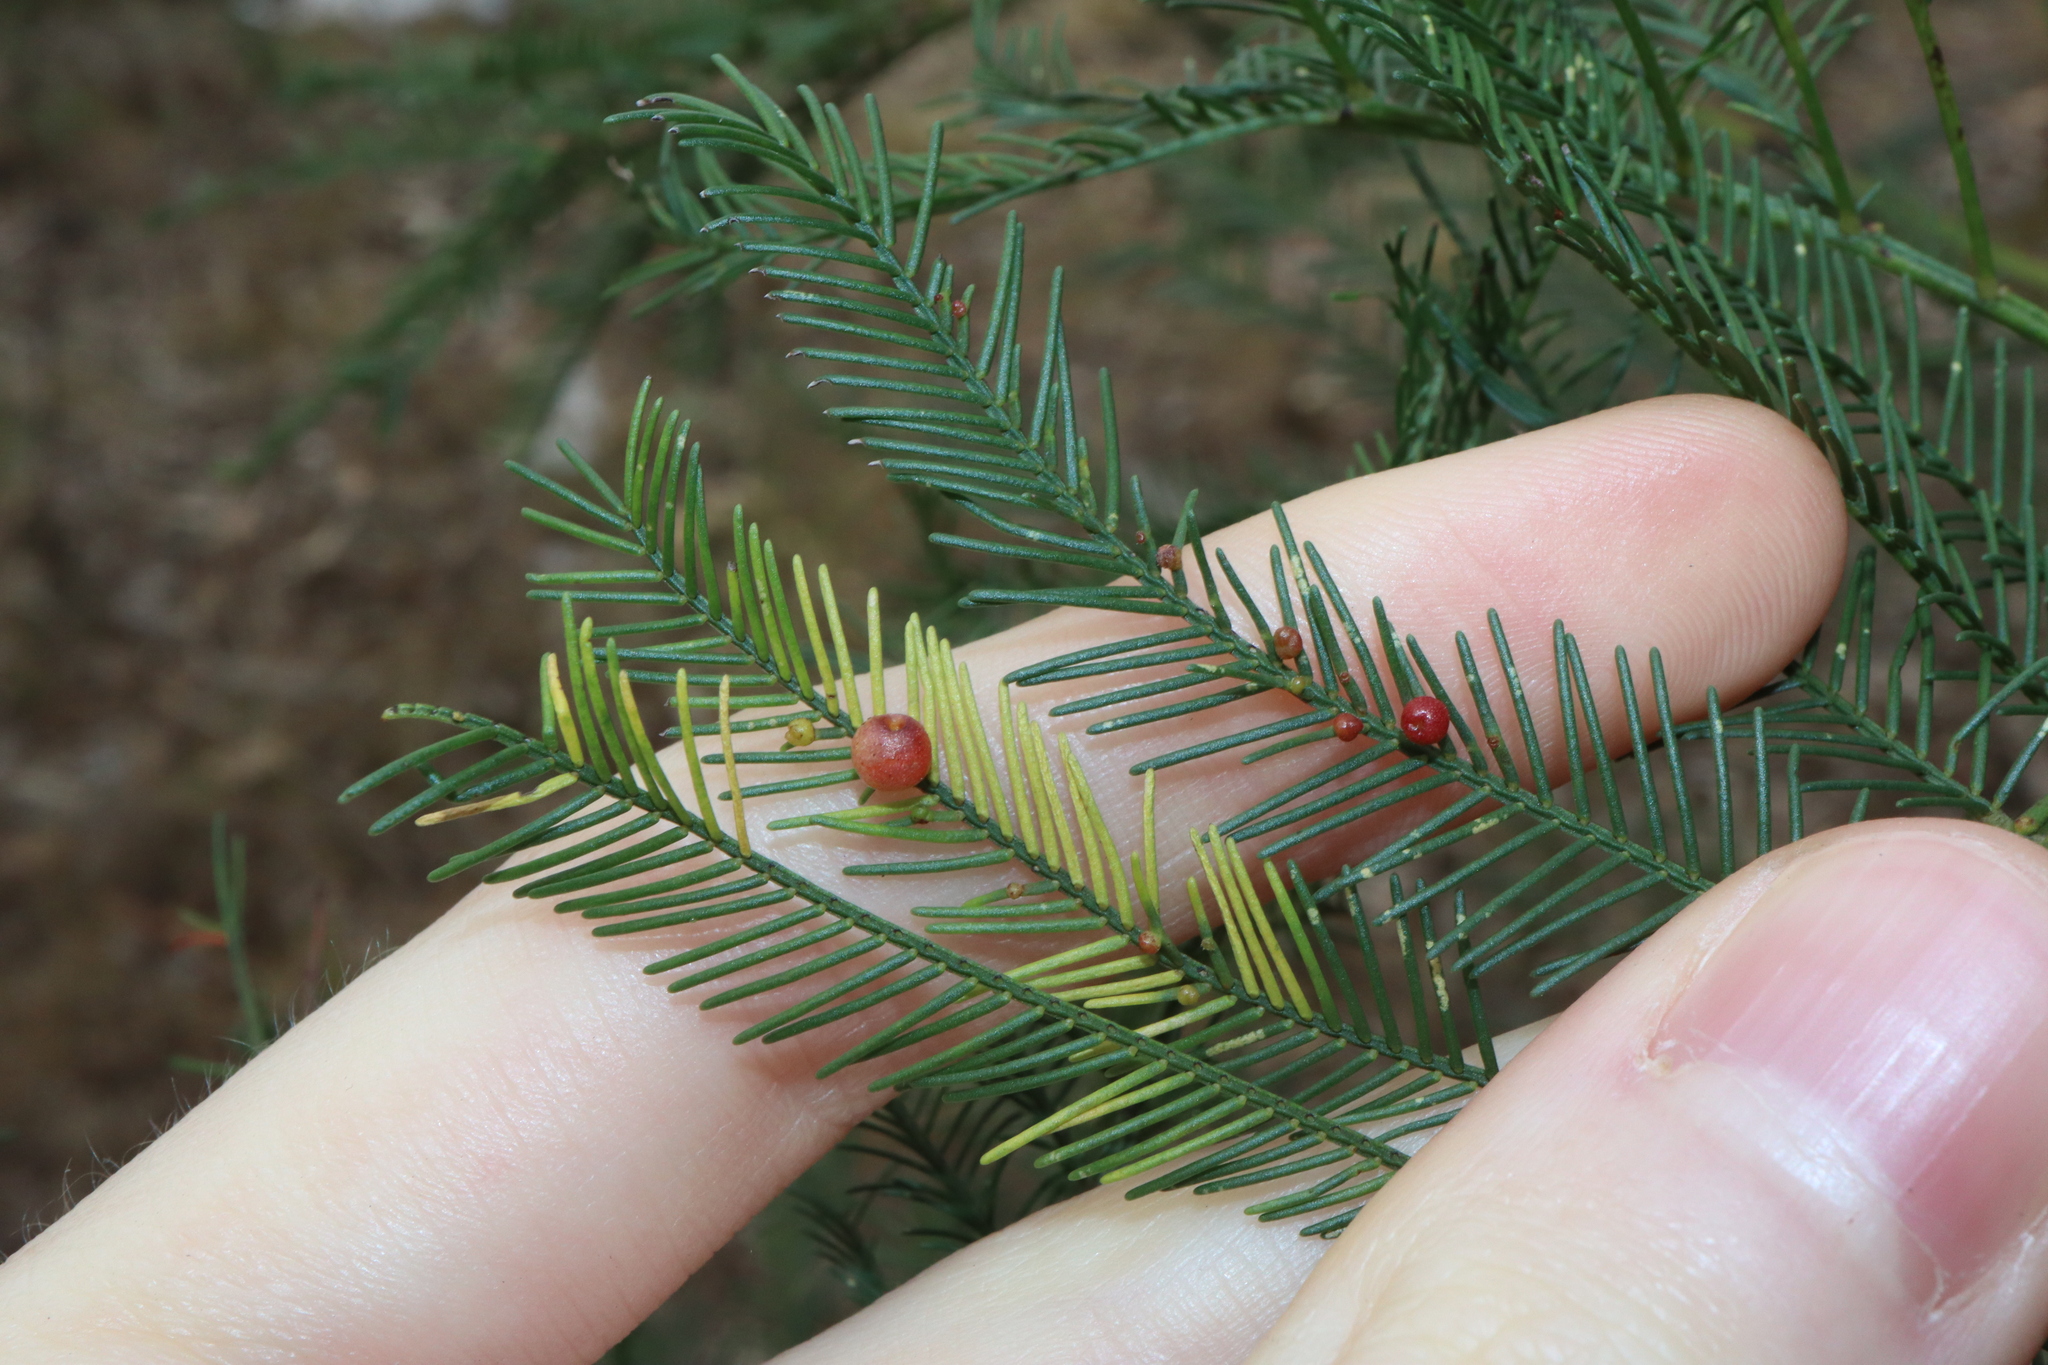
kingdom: Animalia
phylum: Arthropoda
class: Insecta
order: Diptera
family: Cecidomyiidae
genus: Austroacacidiplosis
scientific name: Austroacacidiplosis botrycephalae
